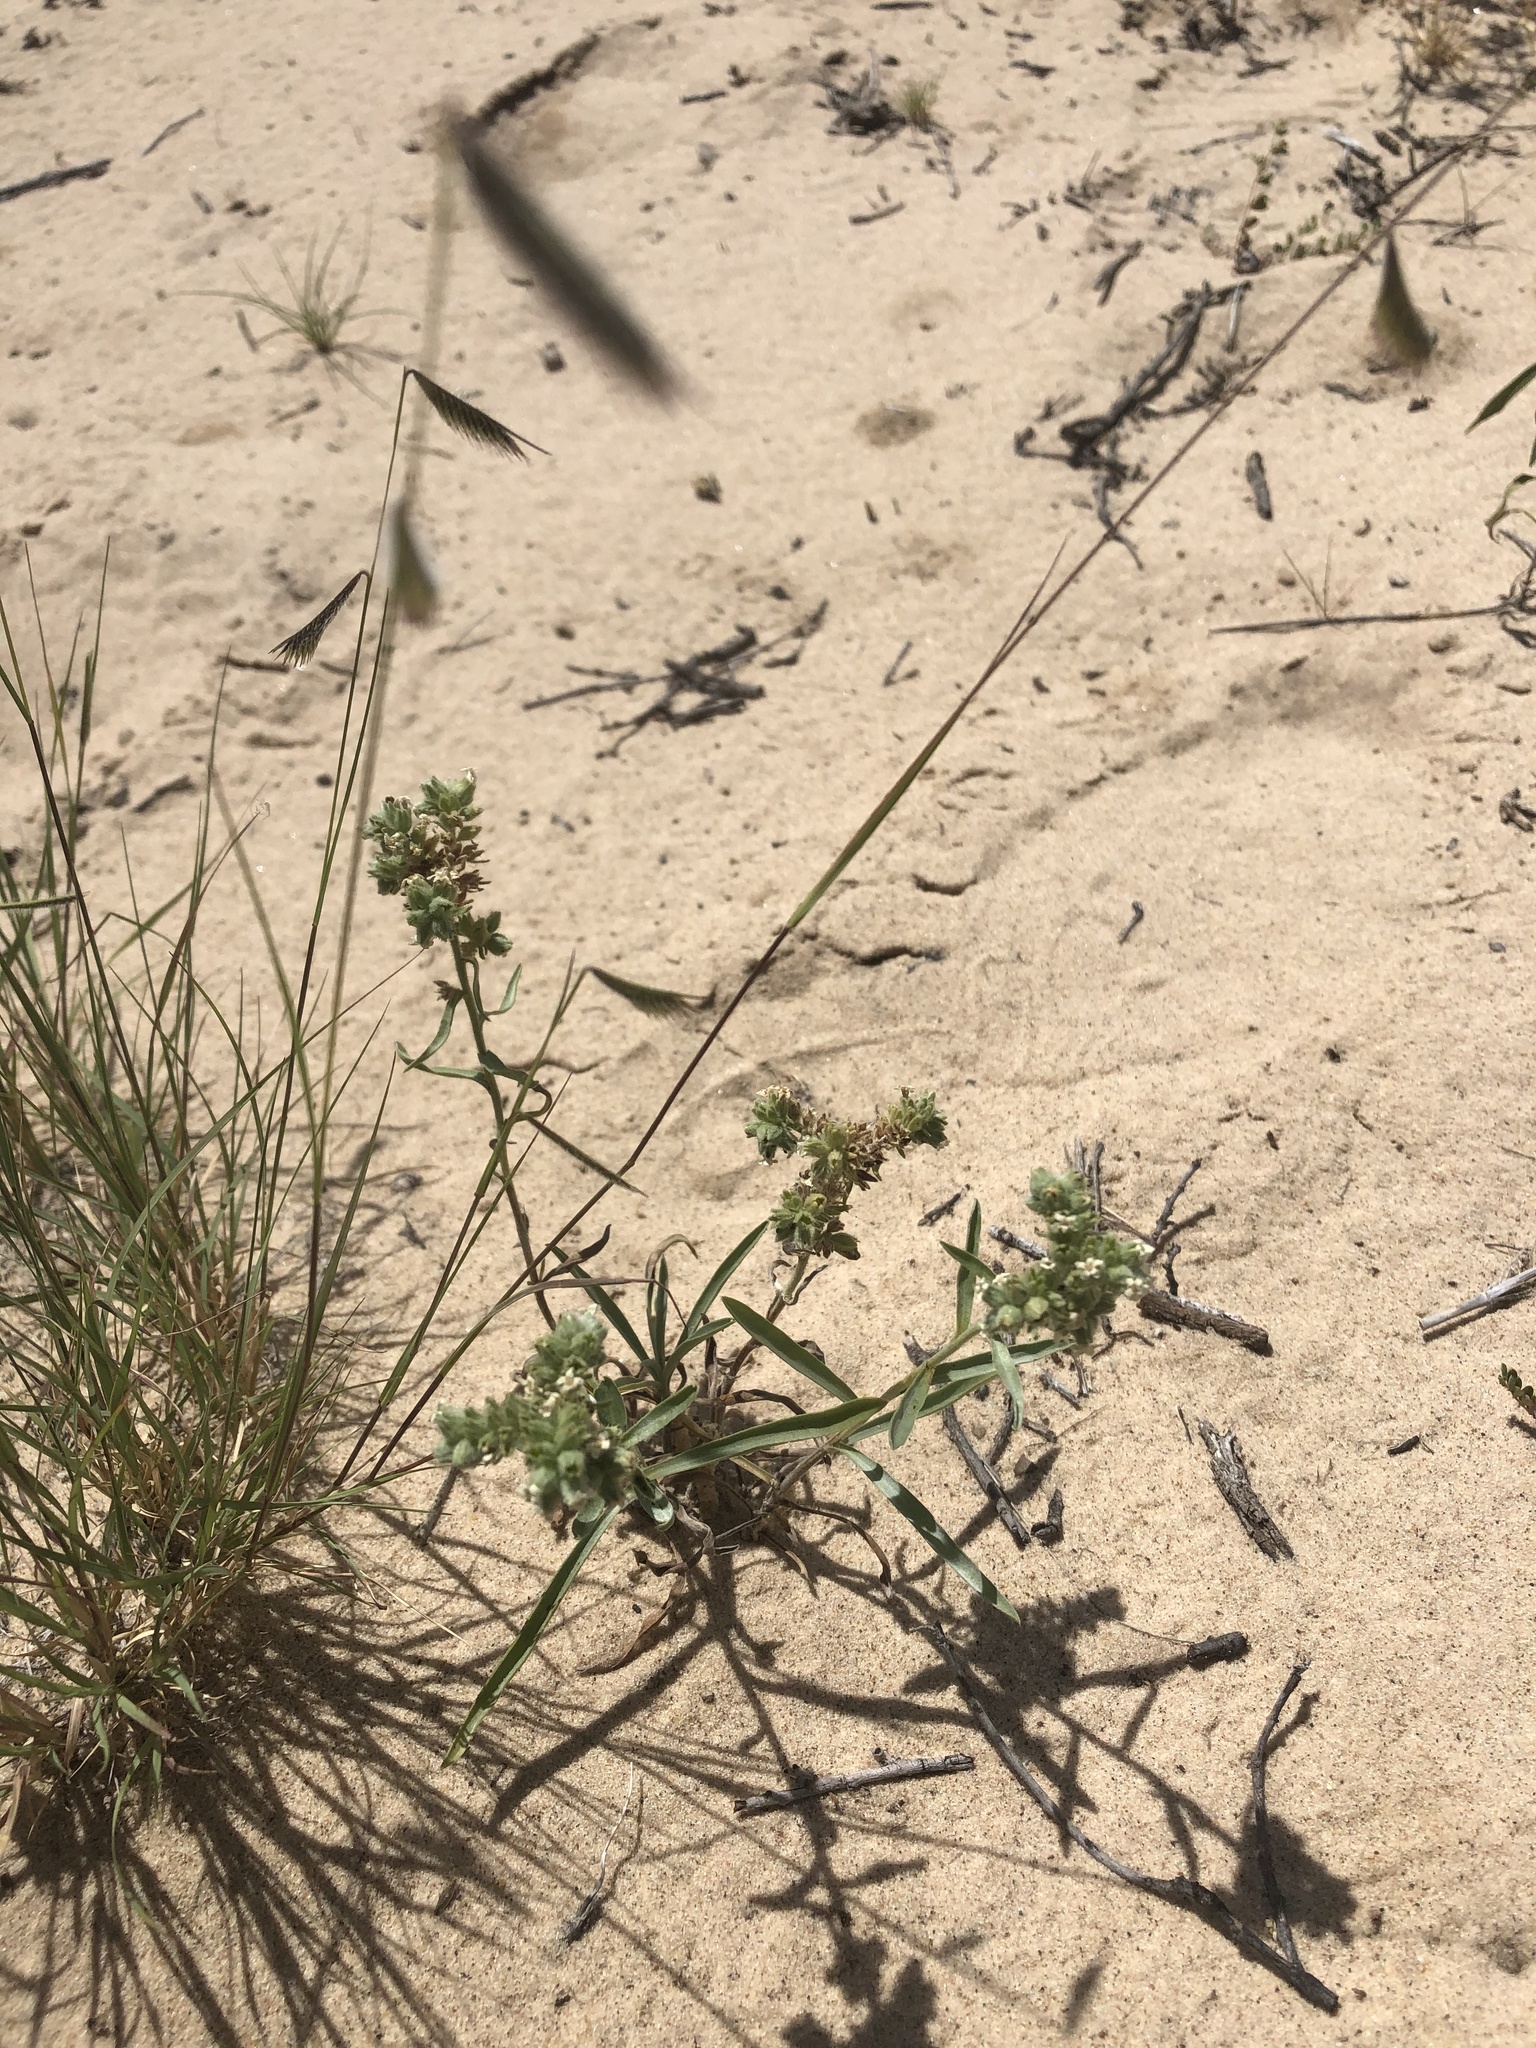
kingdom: Plantae
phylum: Tracheophyta
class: Magnoliopsida
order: Boraginales
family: Boraginaceae
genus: Oreocarya
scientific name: Oreocarya suffruticosa
